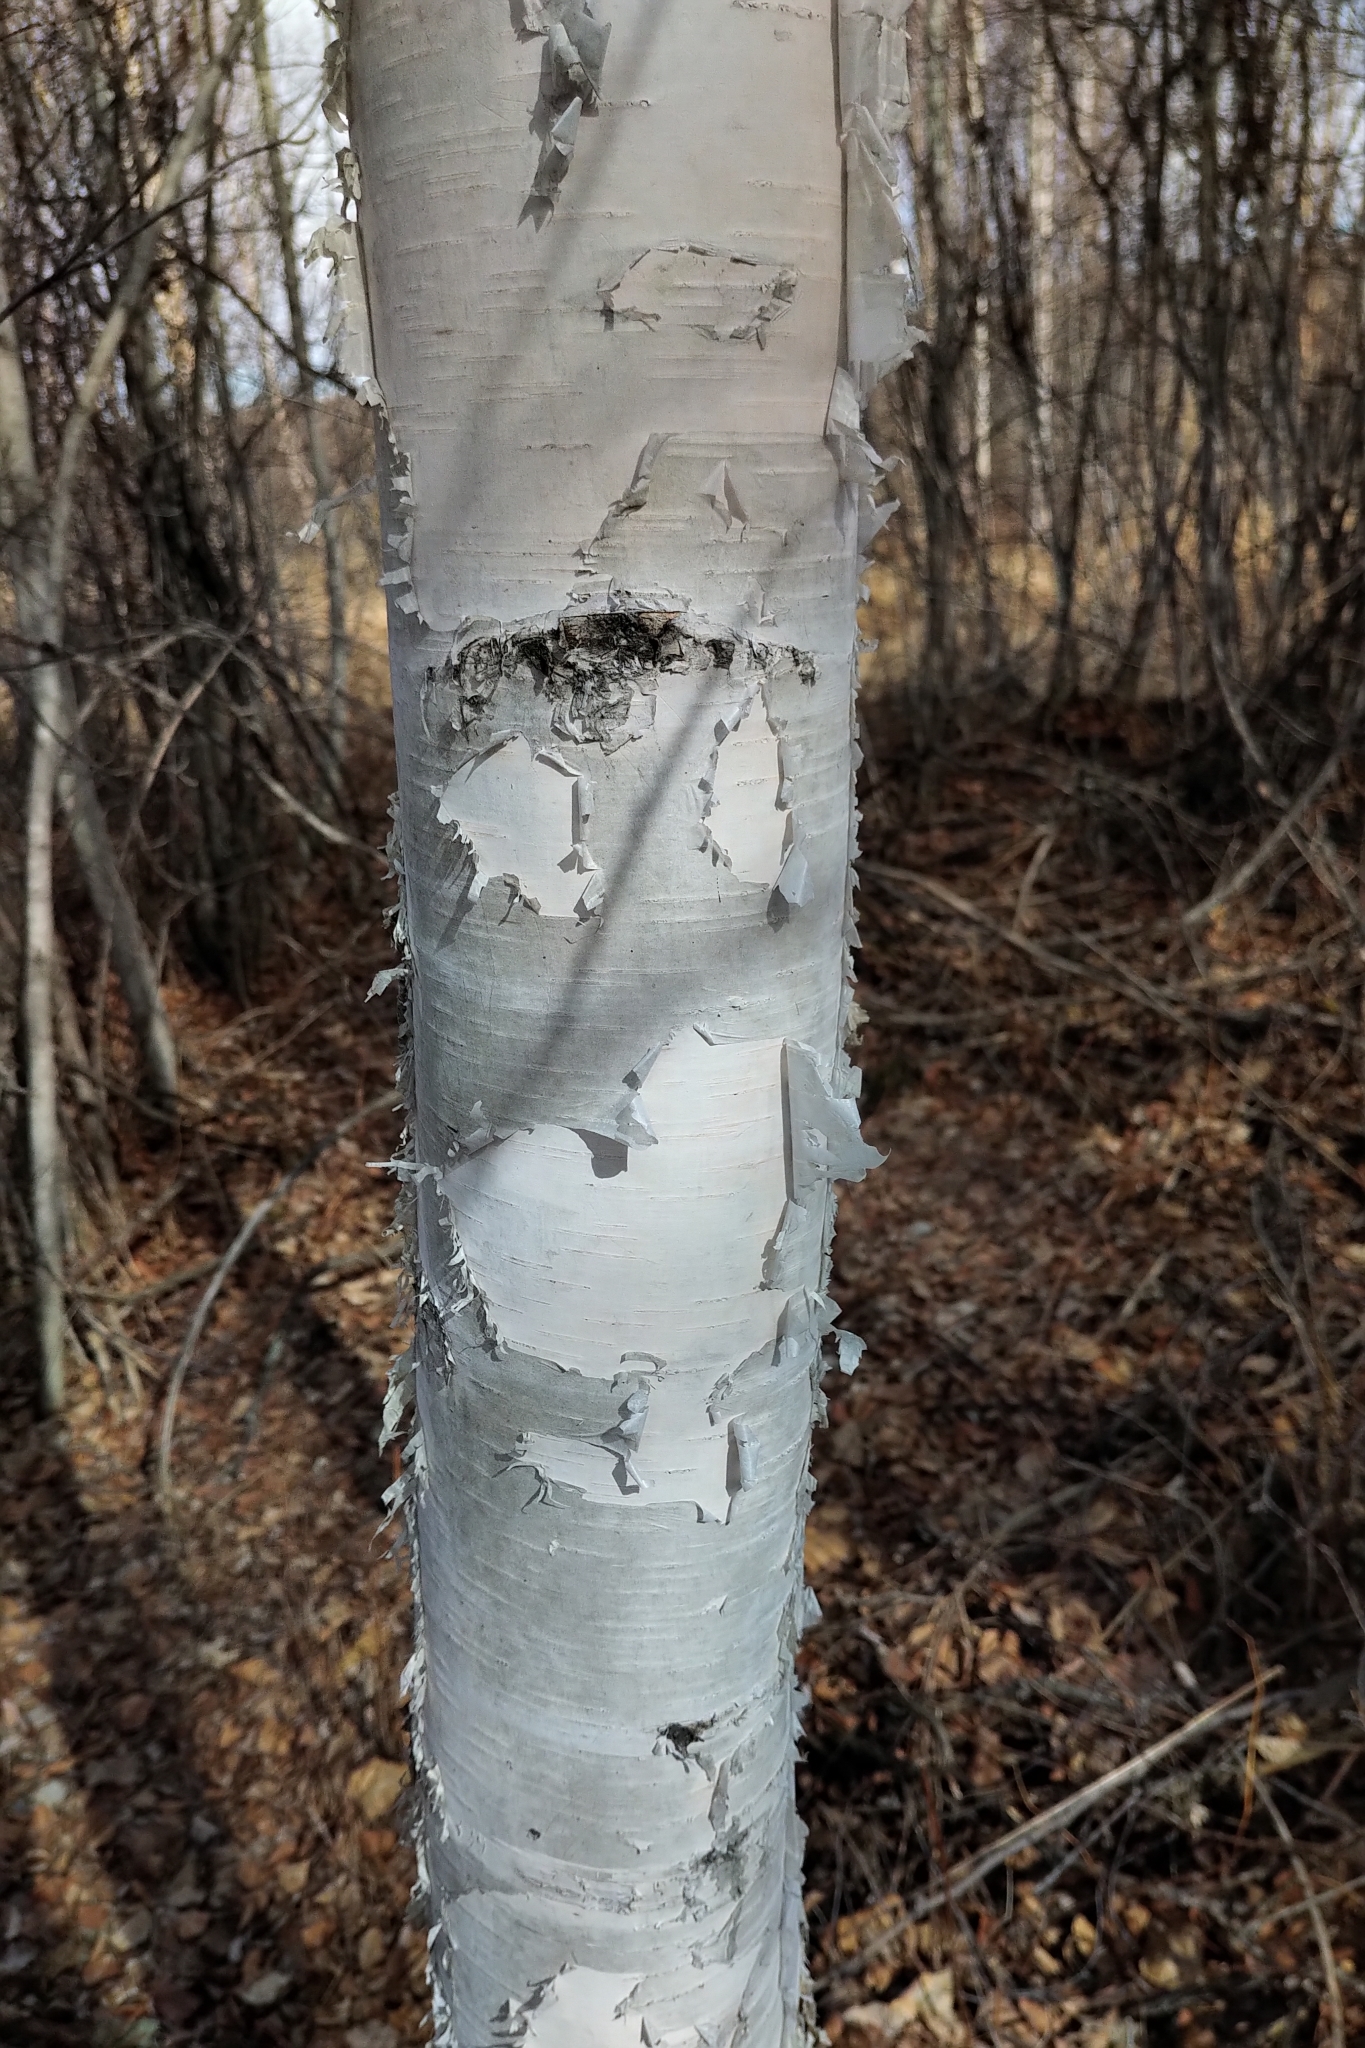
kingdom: Plantae
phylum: Tracheophyta
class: Magnoliopsida
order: Fagales
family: Betulaceae
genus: Betula
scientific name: Betula papyrifera
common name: Paper birch
